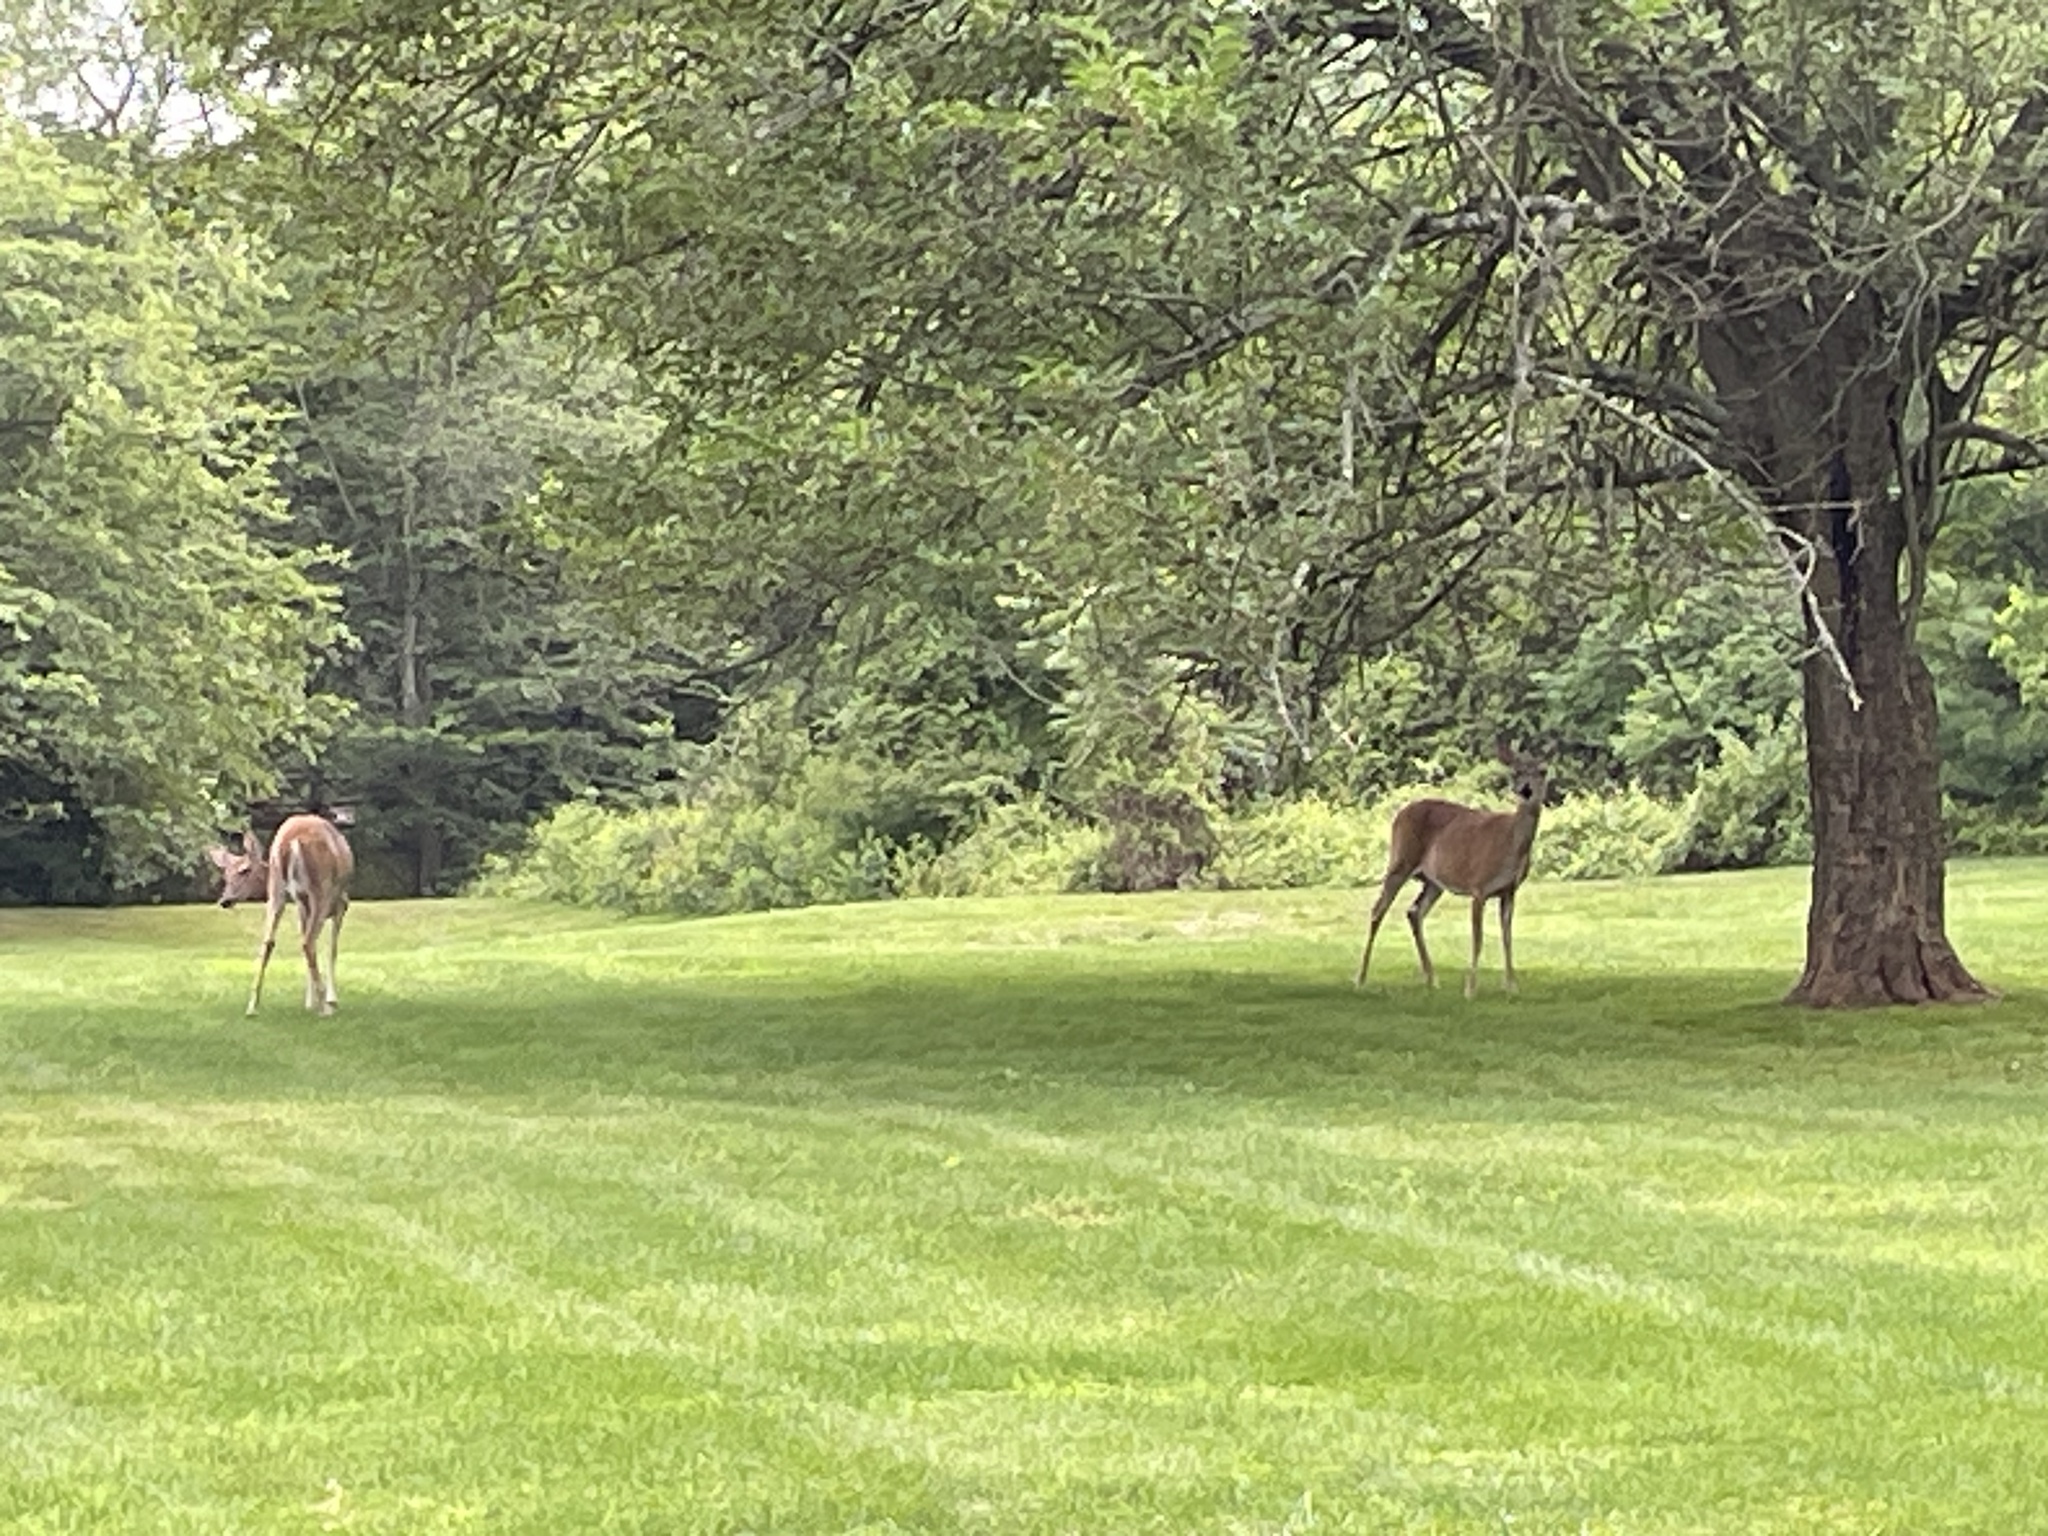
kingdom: Animalia
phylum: Chordata
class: Mammalia
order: Artiodactyla
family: Cervidae
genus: Odocoileus
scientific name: Odocoileus virginianus
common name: White-tailed deer
